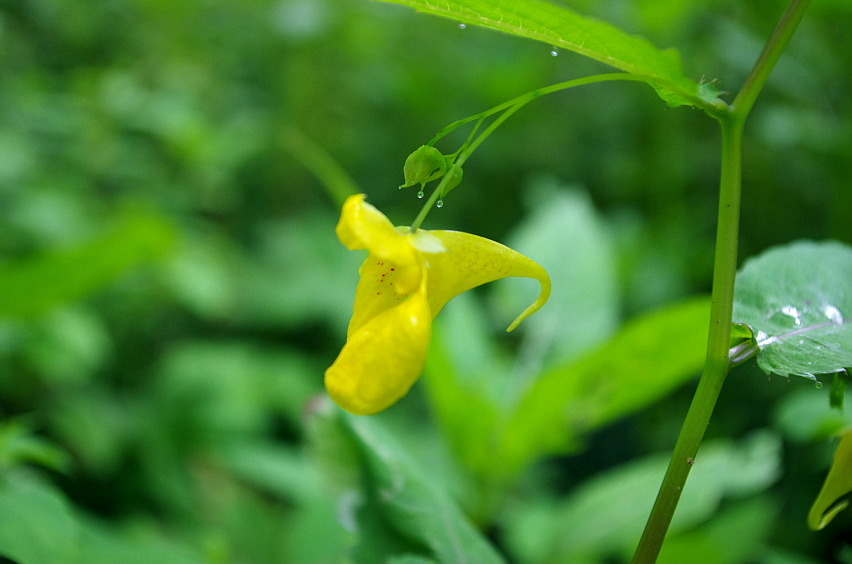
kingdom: Plantae
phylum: Tracheophyta
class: Magnoliopsida
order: Ericales
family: Balsaminaceae
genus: Impatiens
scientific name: Impatiens noli-tangere
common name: Touch-me-not balsam
